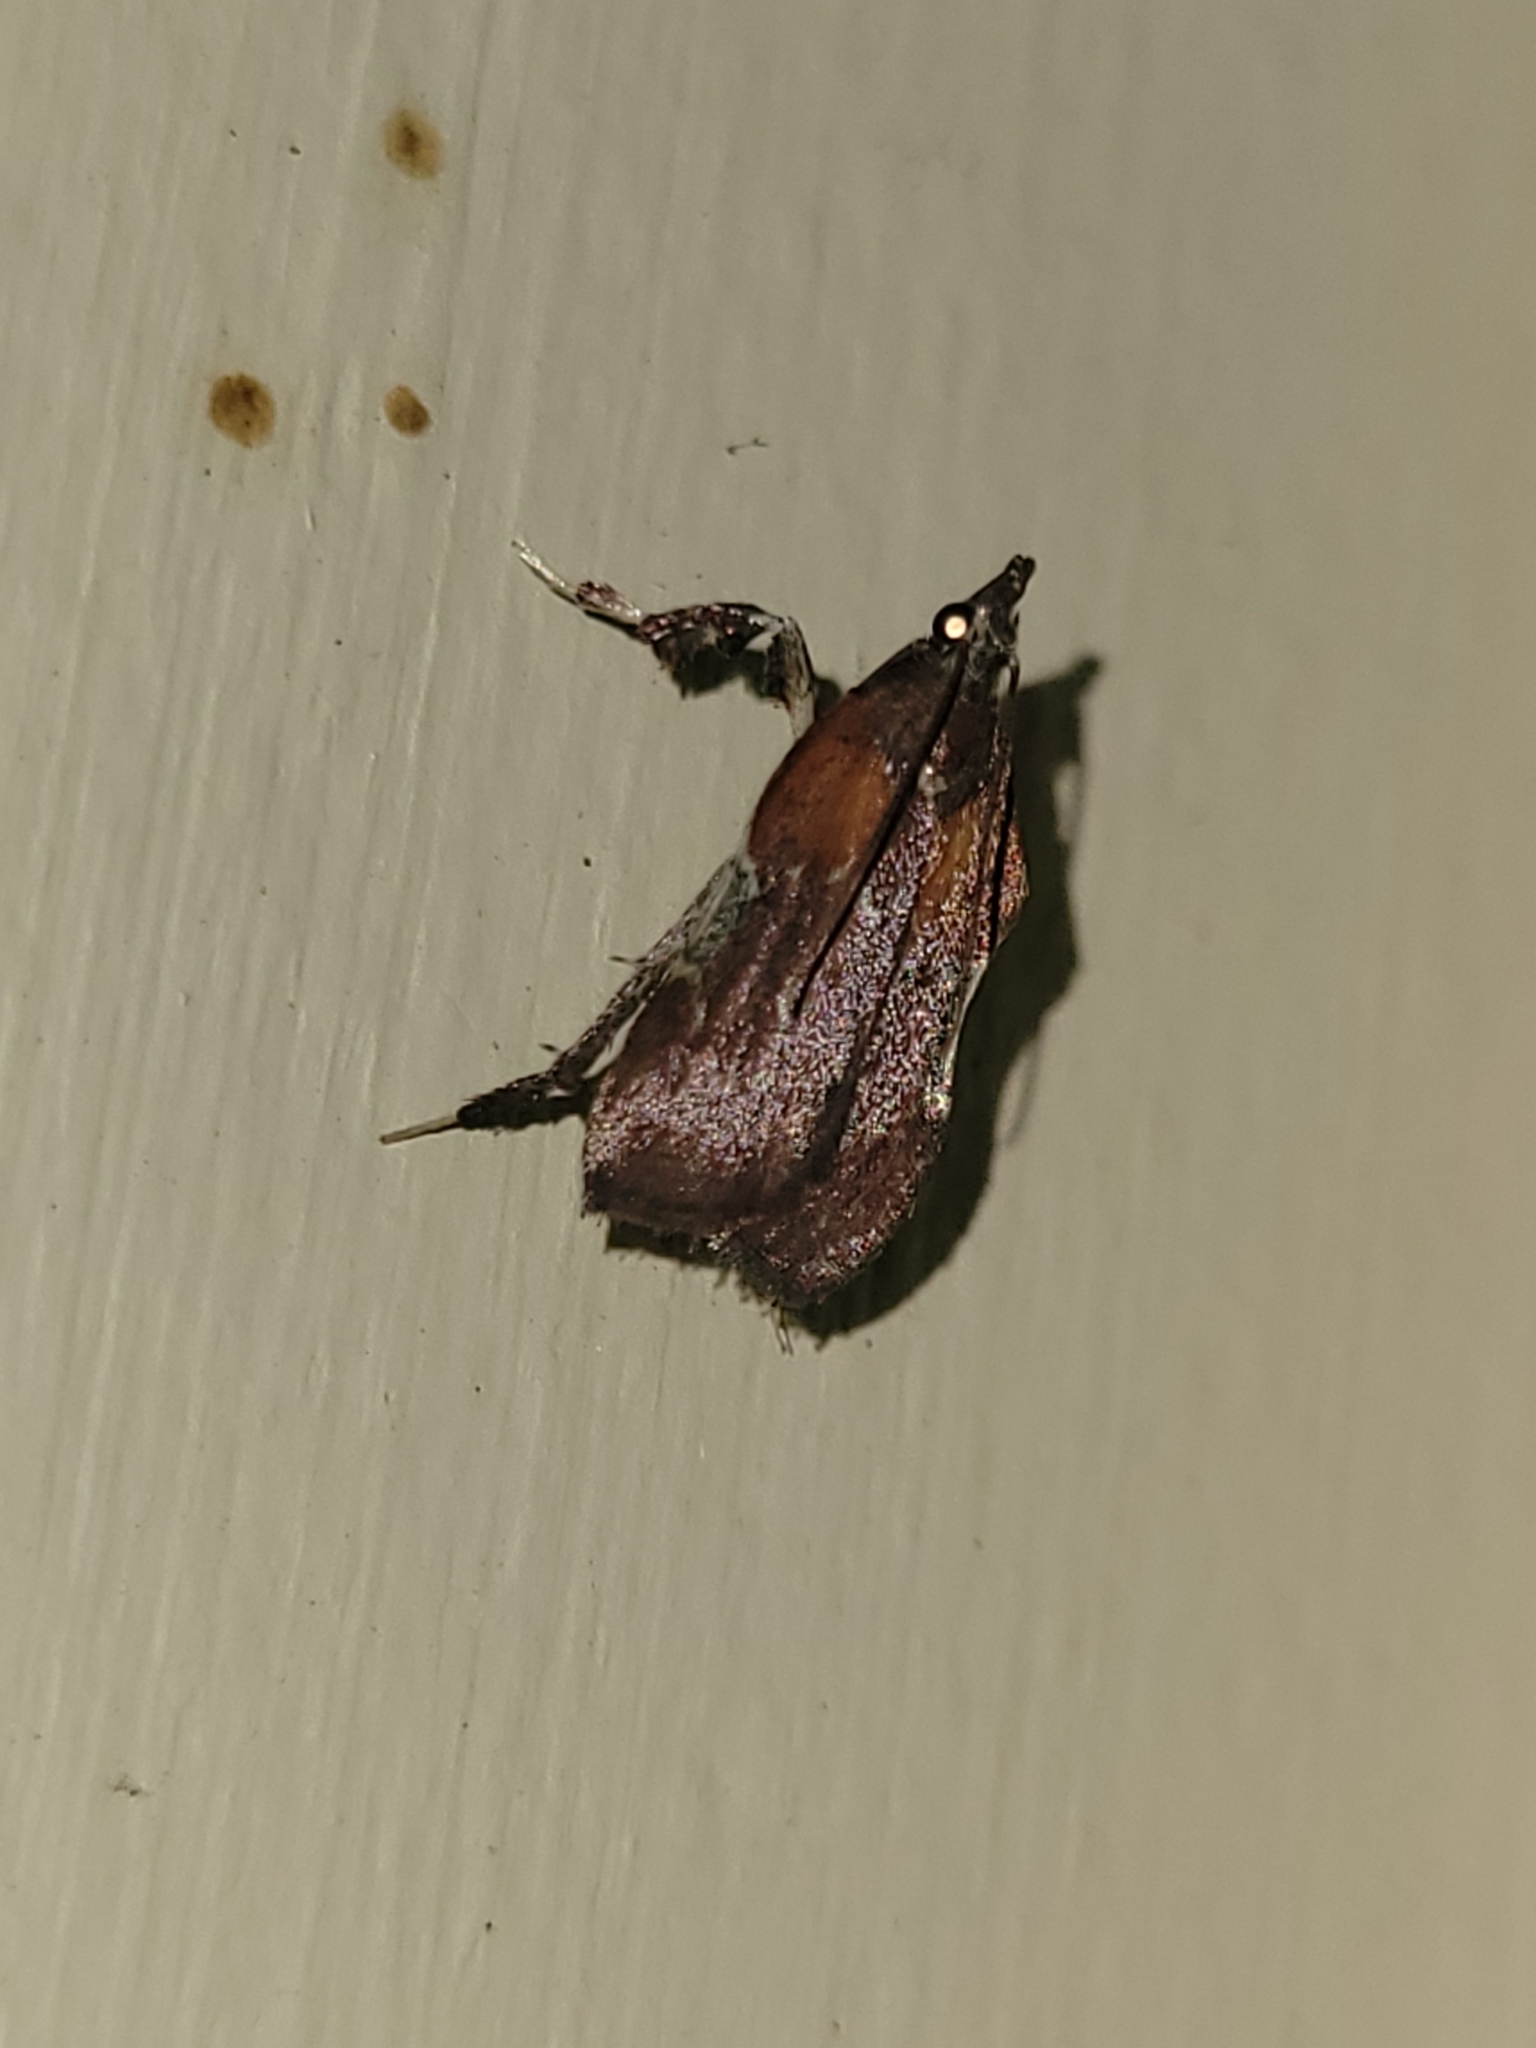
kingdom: Animalia
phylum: Arthropoda
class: Insecta
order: Lepidoptera
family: Pyralidae
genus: Galasa
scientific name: Galasa nigrinodis
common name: Boxwood leaftier moth
